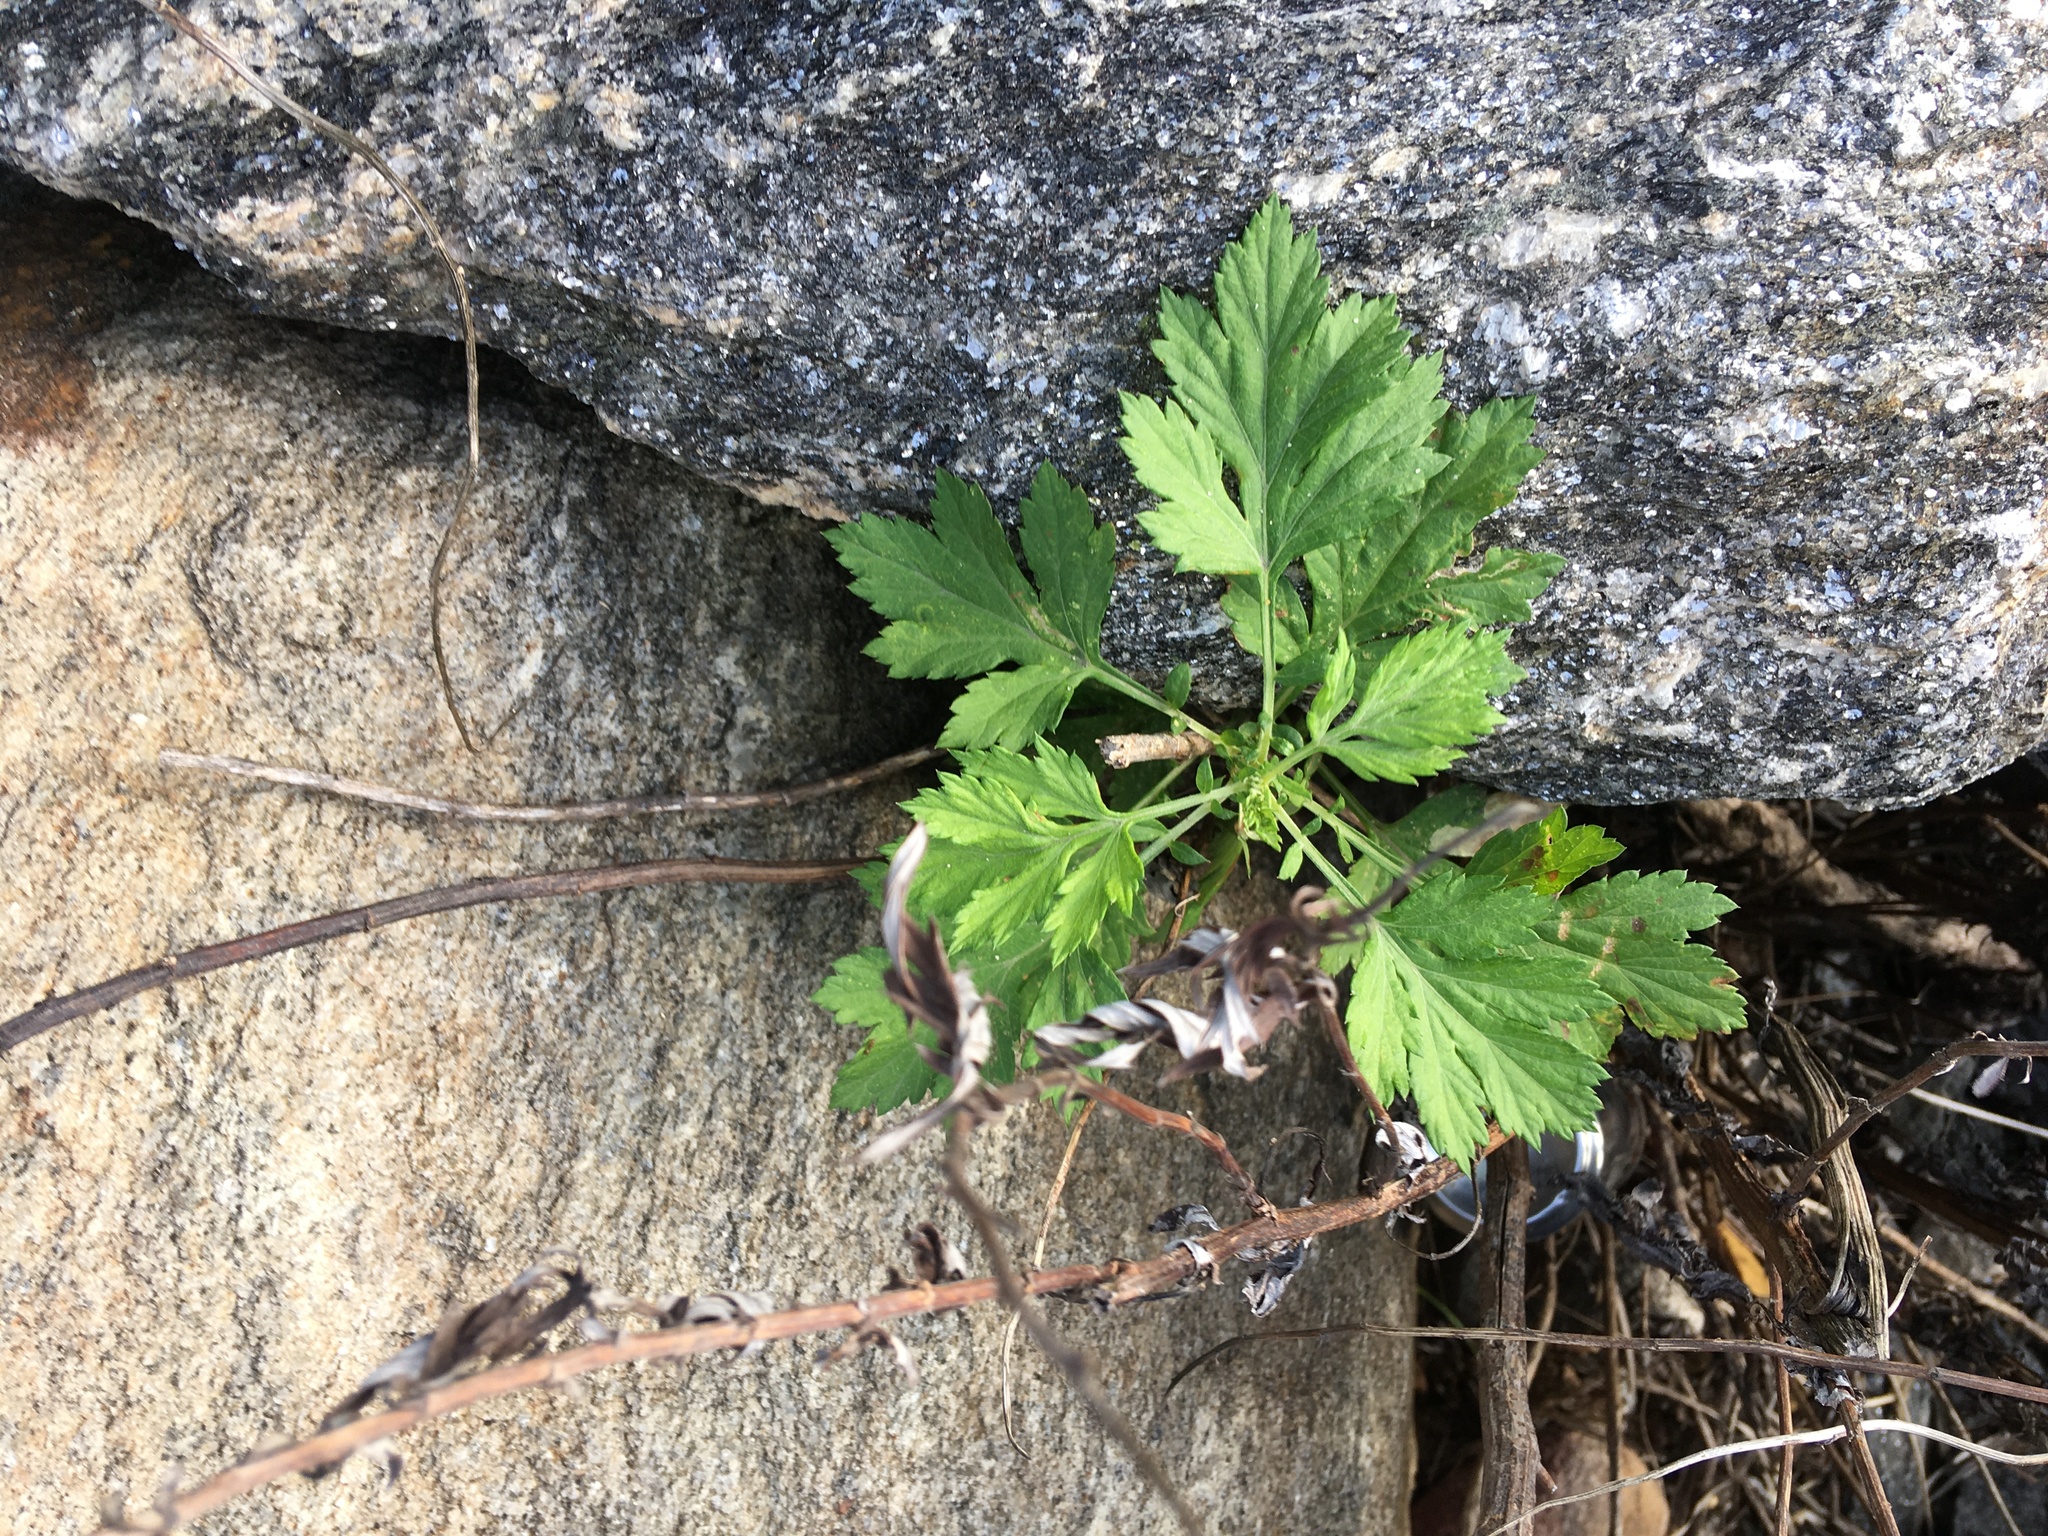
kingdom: Plantae
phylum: Tracheophyta
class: Magnoliopsida
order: Asterales
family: Asteraceae
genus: Artemisia
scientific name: Artemisia vulgaris
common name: Mugwort
